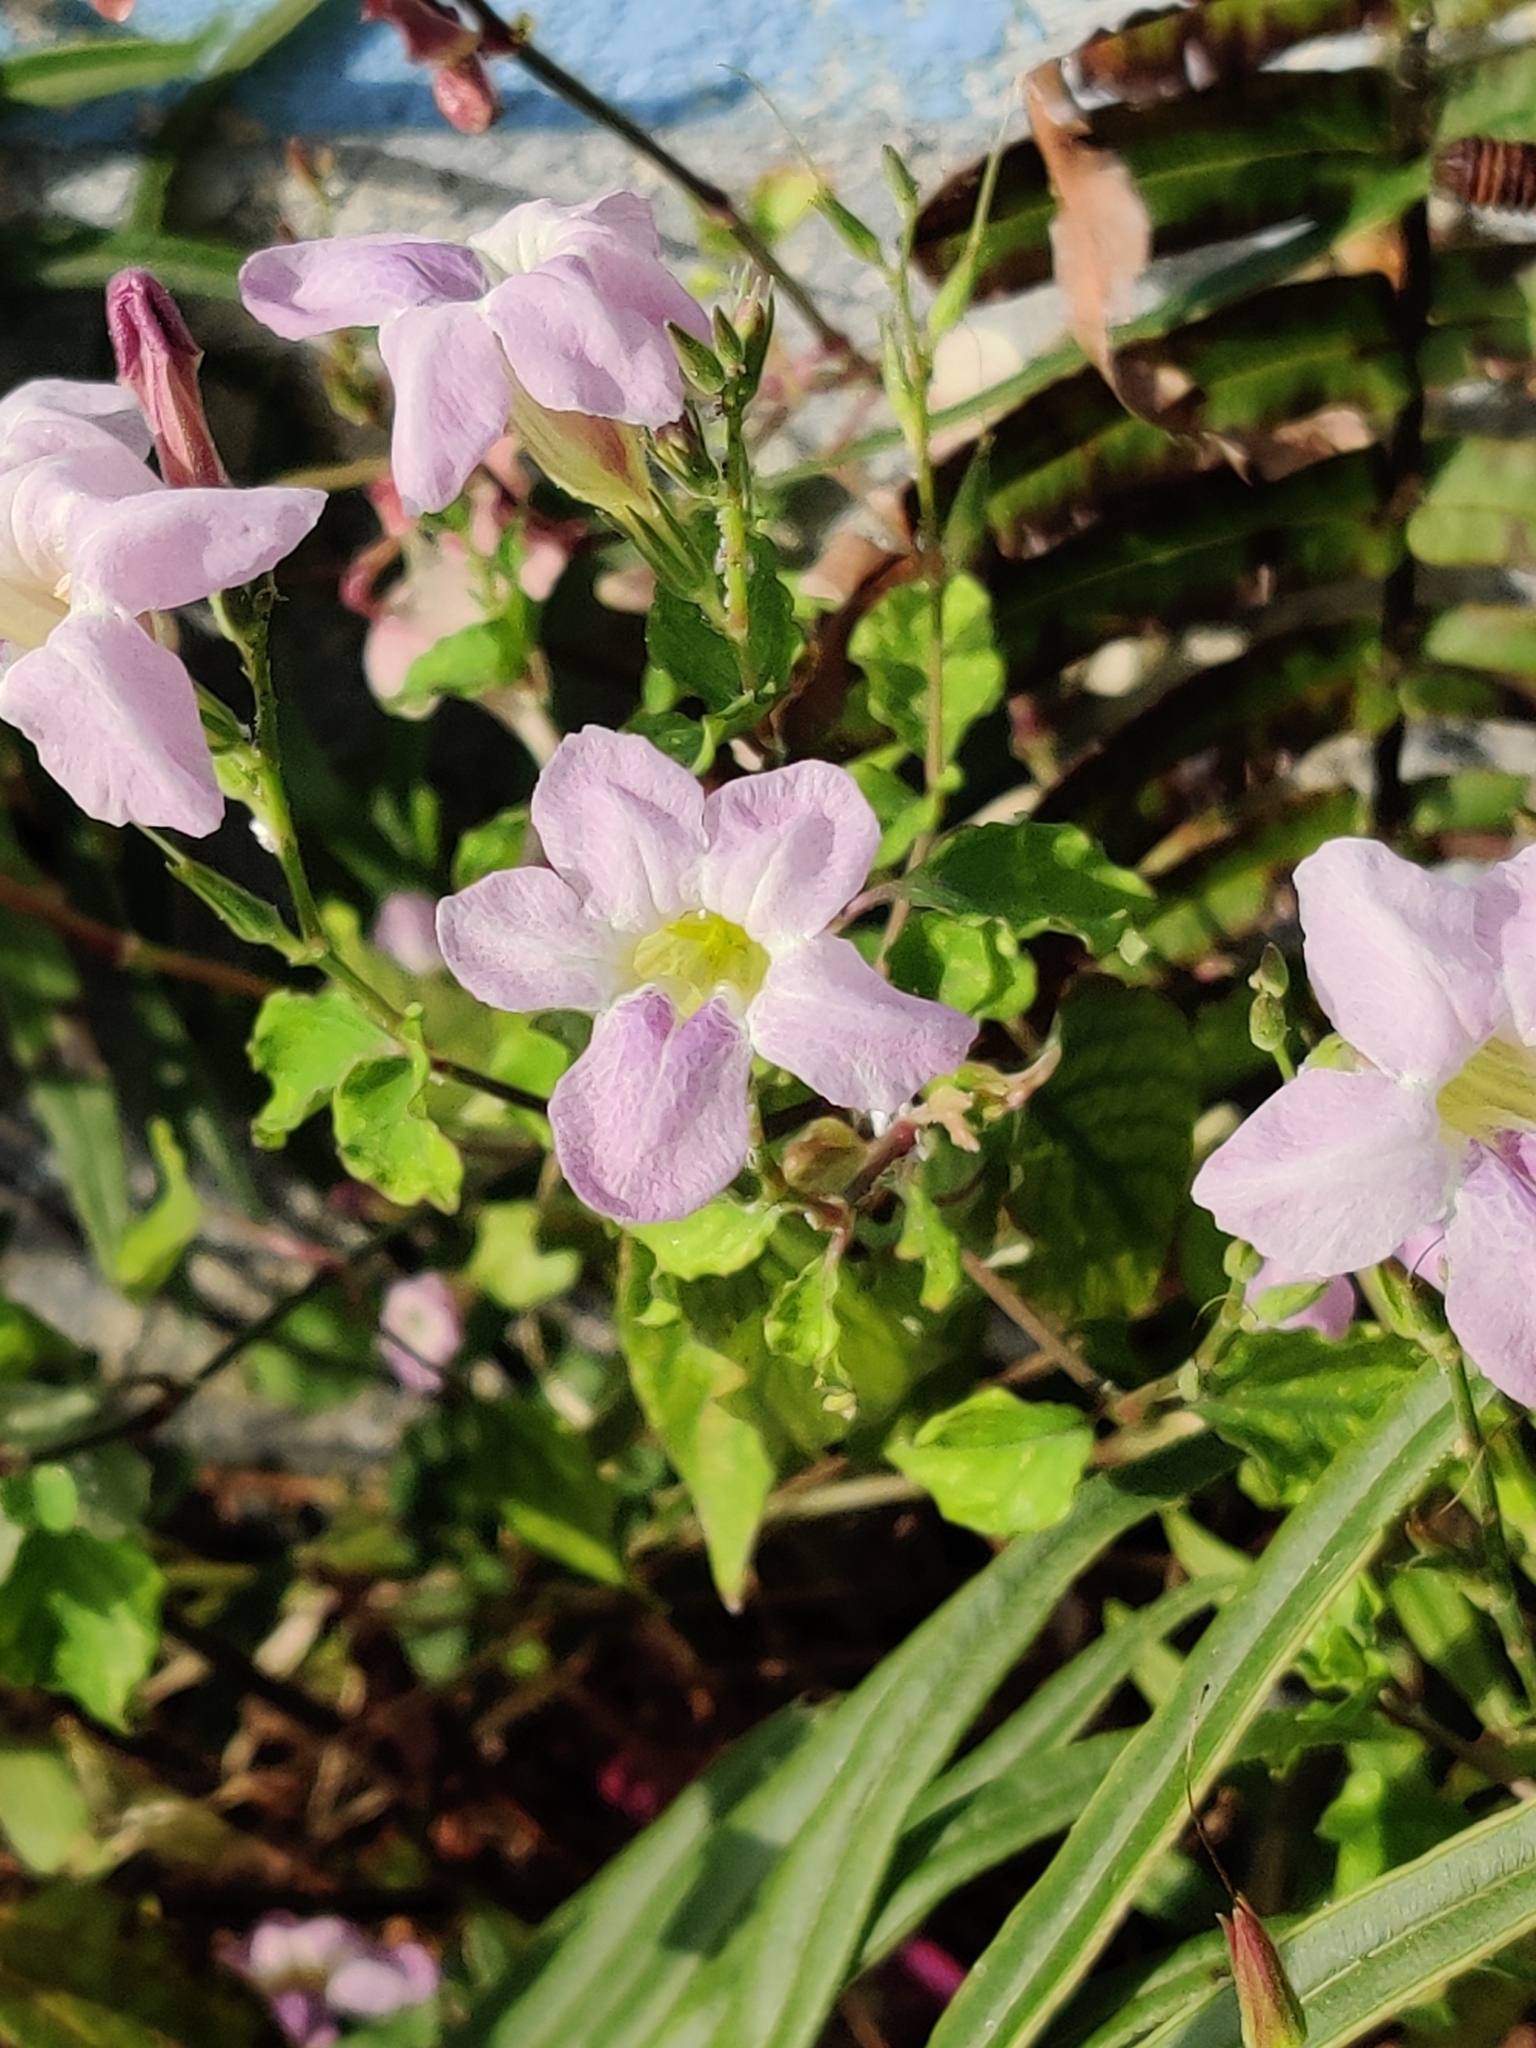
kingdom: Plantae
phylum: Tracheophyta
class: Magnoliopsida
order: Lamiales
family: Acanthaceae
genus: Asystasia
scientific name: Asystasia gangetica
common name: Chinese violet
